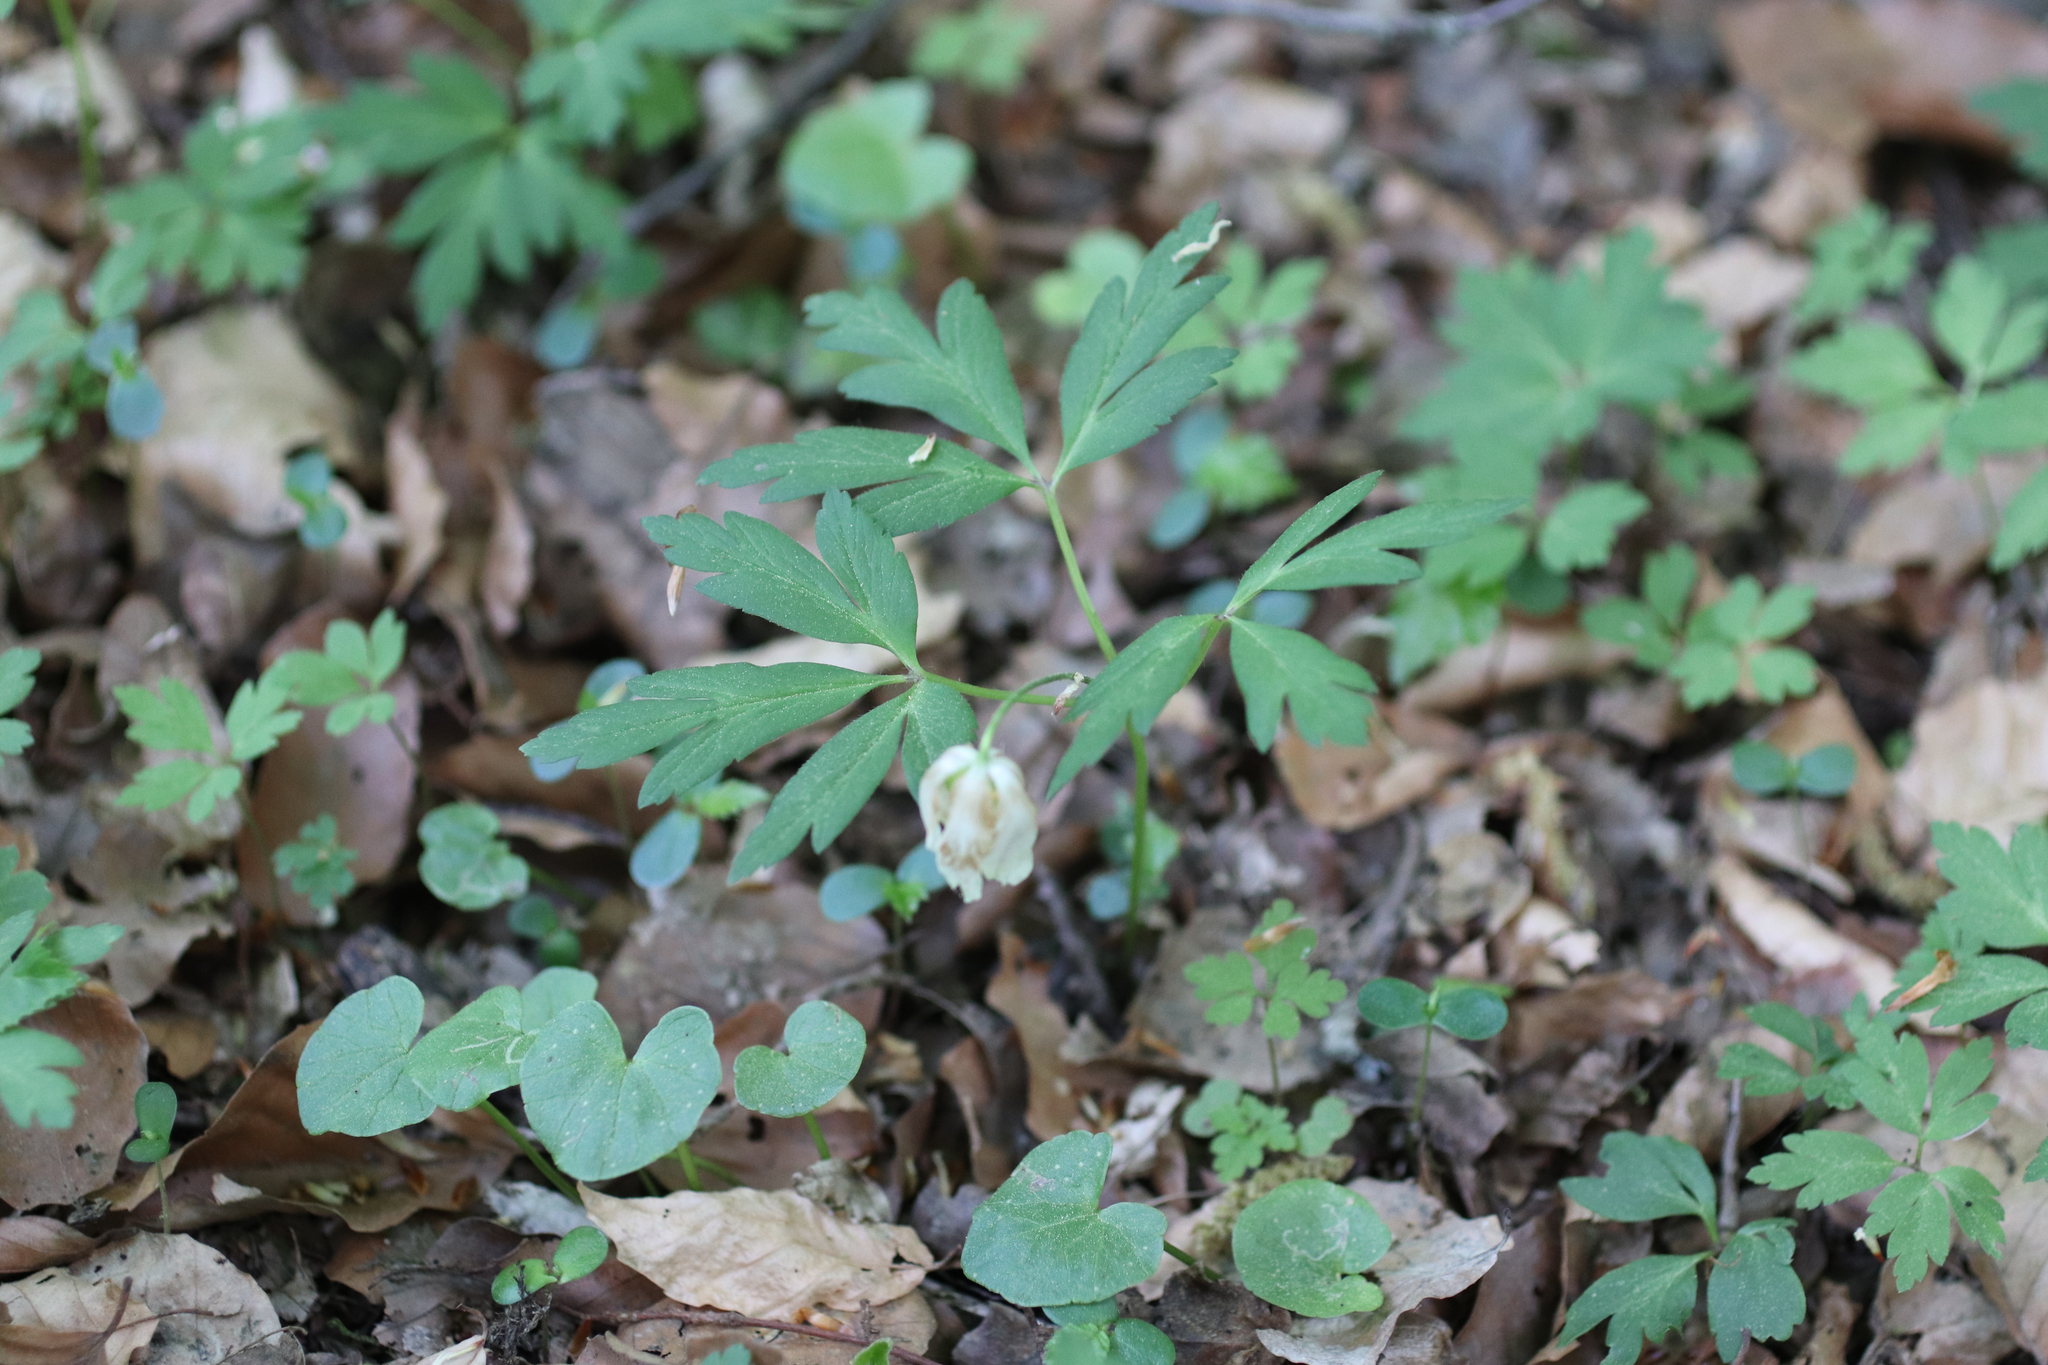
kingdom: Plantae
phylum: Tracheophyta
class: Magnoliopsida
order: Ranunculales
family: Ranunculaceae
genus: Anemone
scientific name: Anemone nemorosa
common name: Wood anemone
